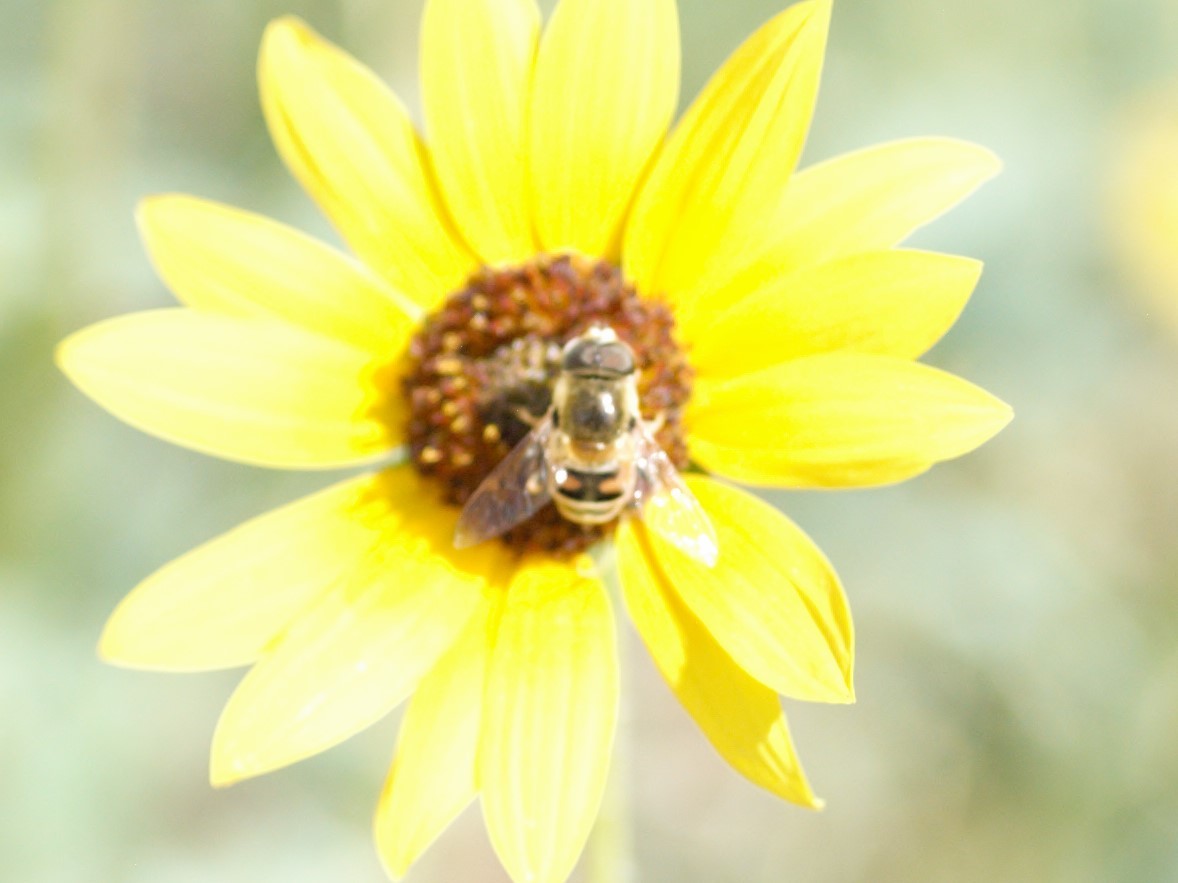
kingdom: Animalia
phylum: Arthropoda
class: Insecta
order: Diptera
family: Syrphidae
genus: Eristalis
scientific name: Eristalis stipator
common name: Yellow-shouldered drone fly
